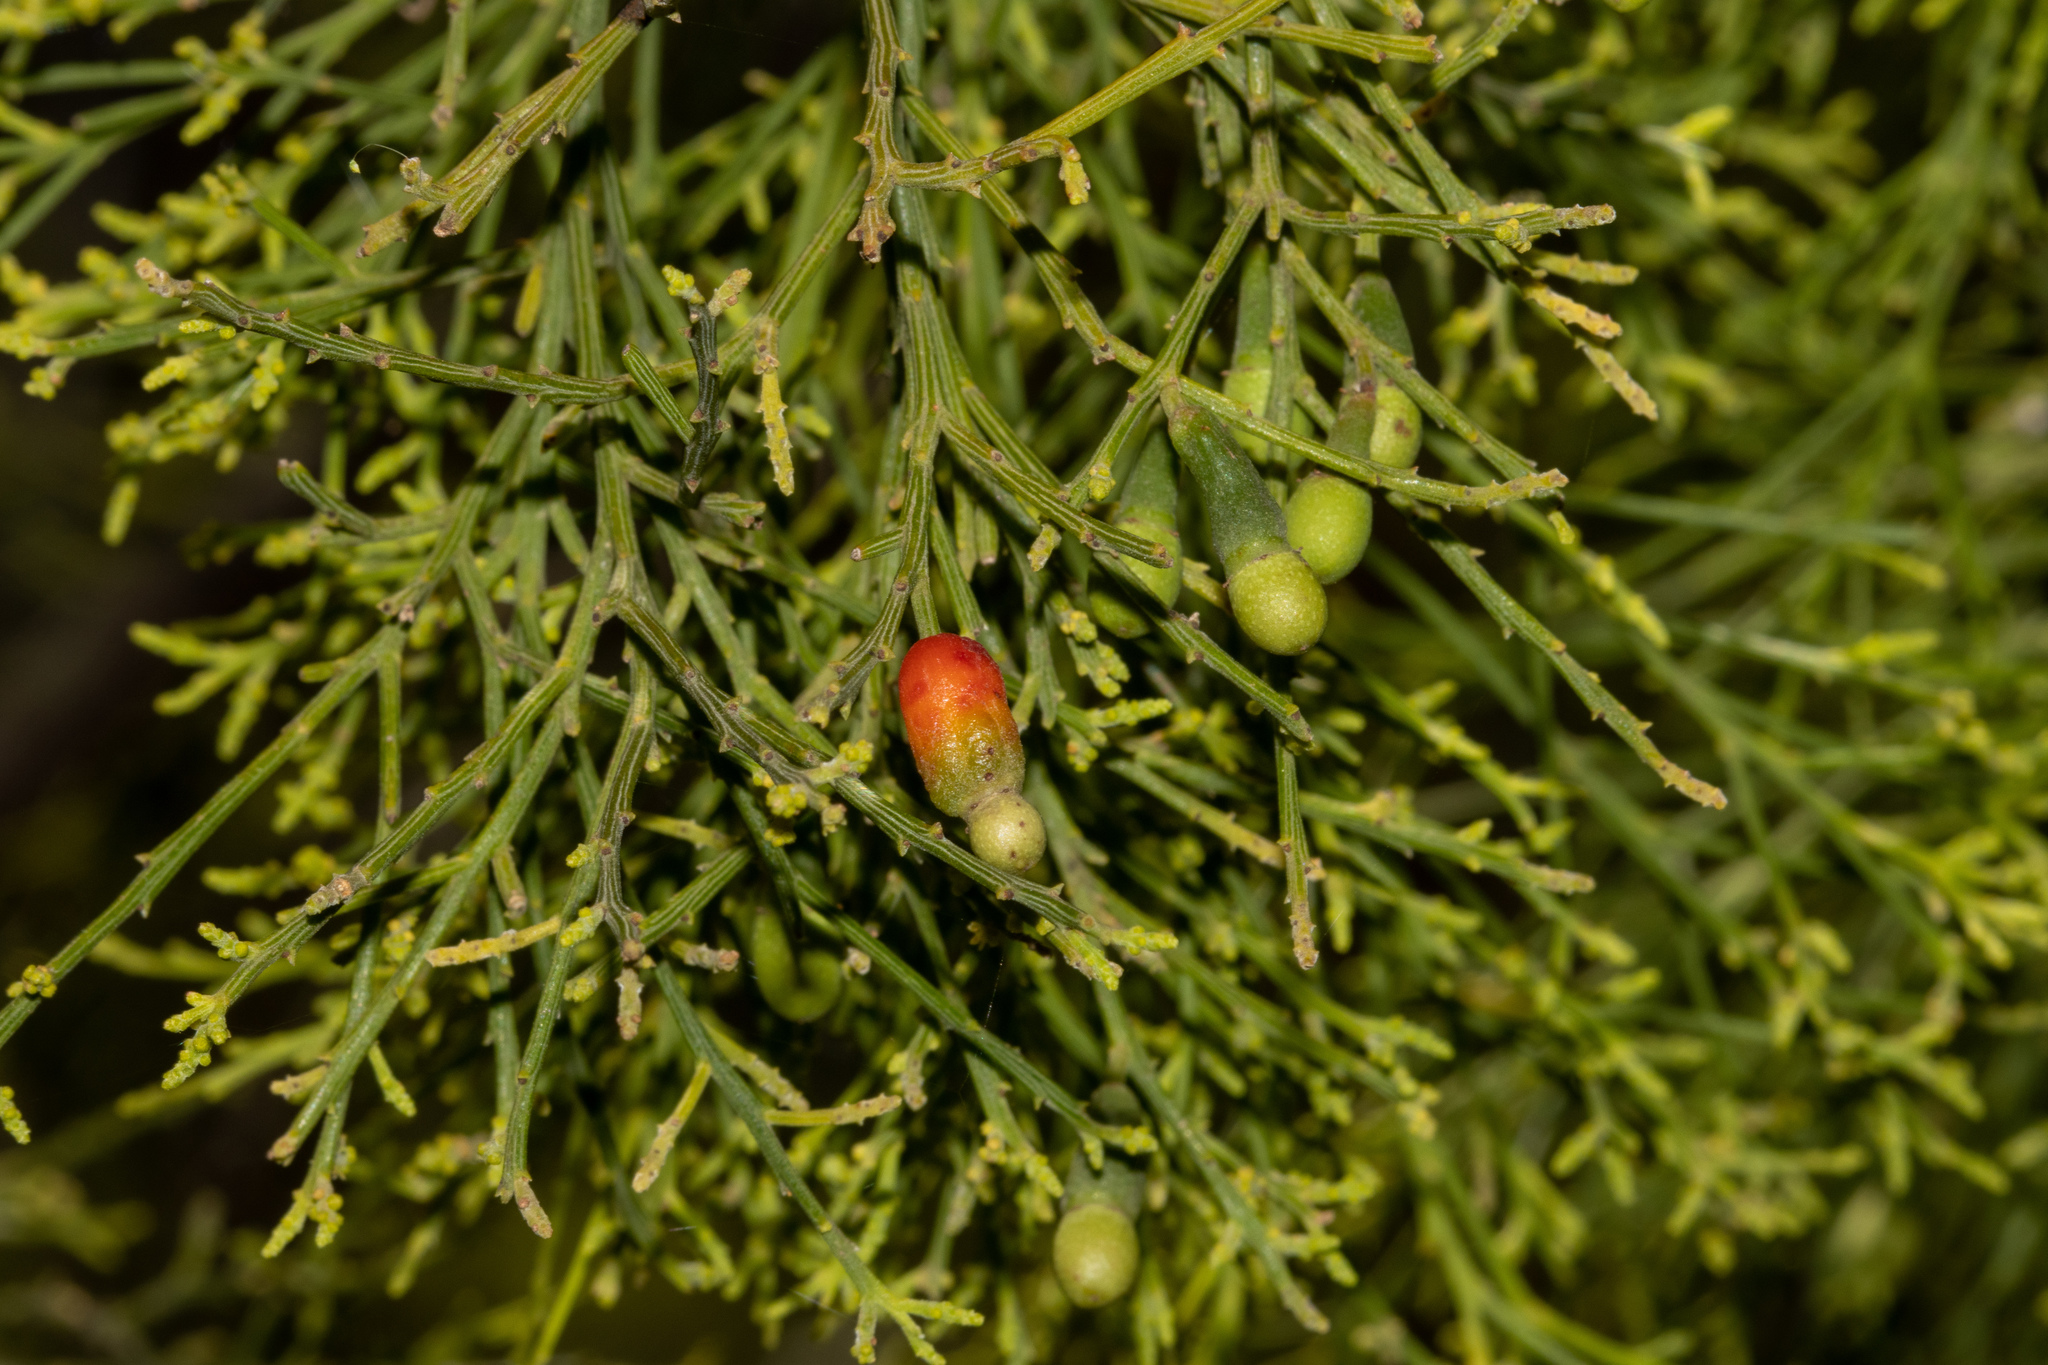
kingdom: Plantae
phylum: Tracheophyta
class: Magnoliopsida
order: Santalales
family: Santalaceae
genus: Exocarpos
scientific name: Exocarpos cupressiformis
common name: Cherry ballart
